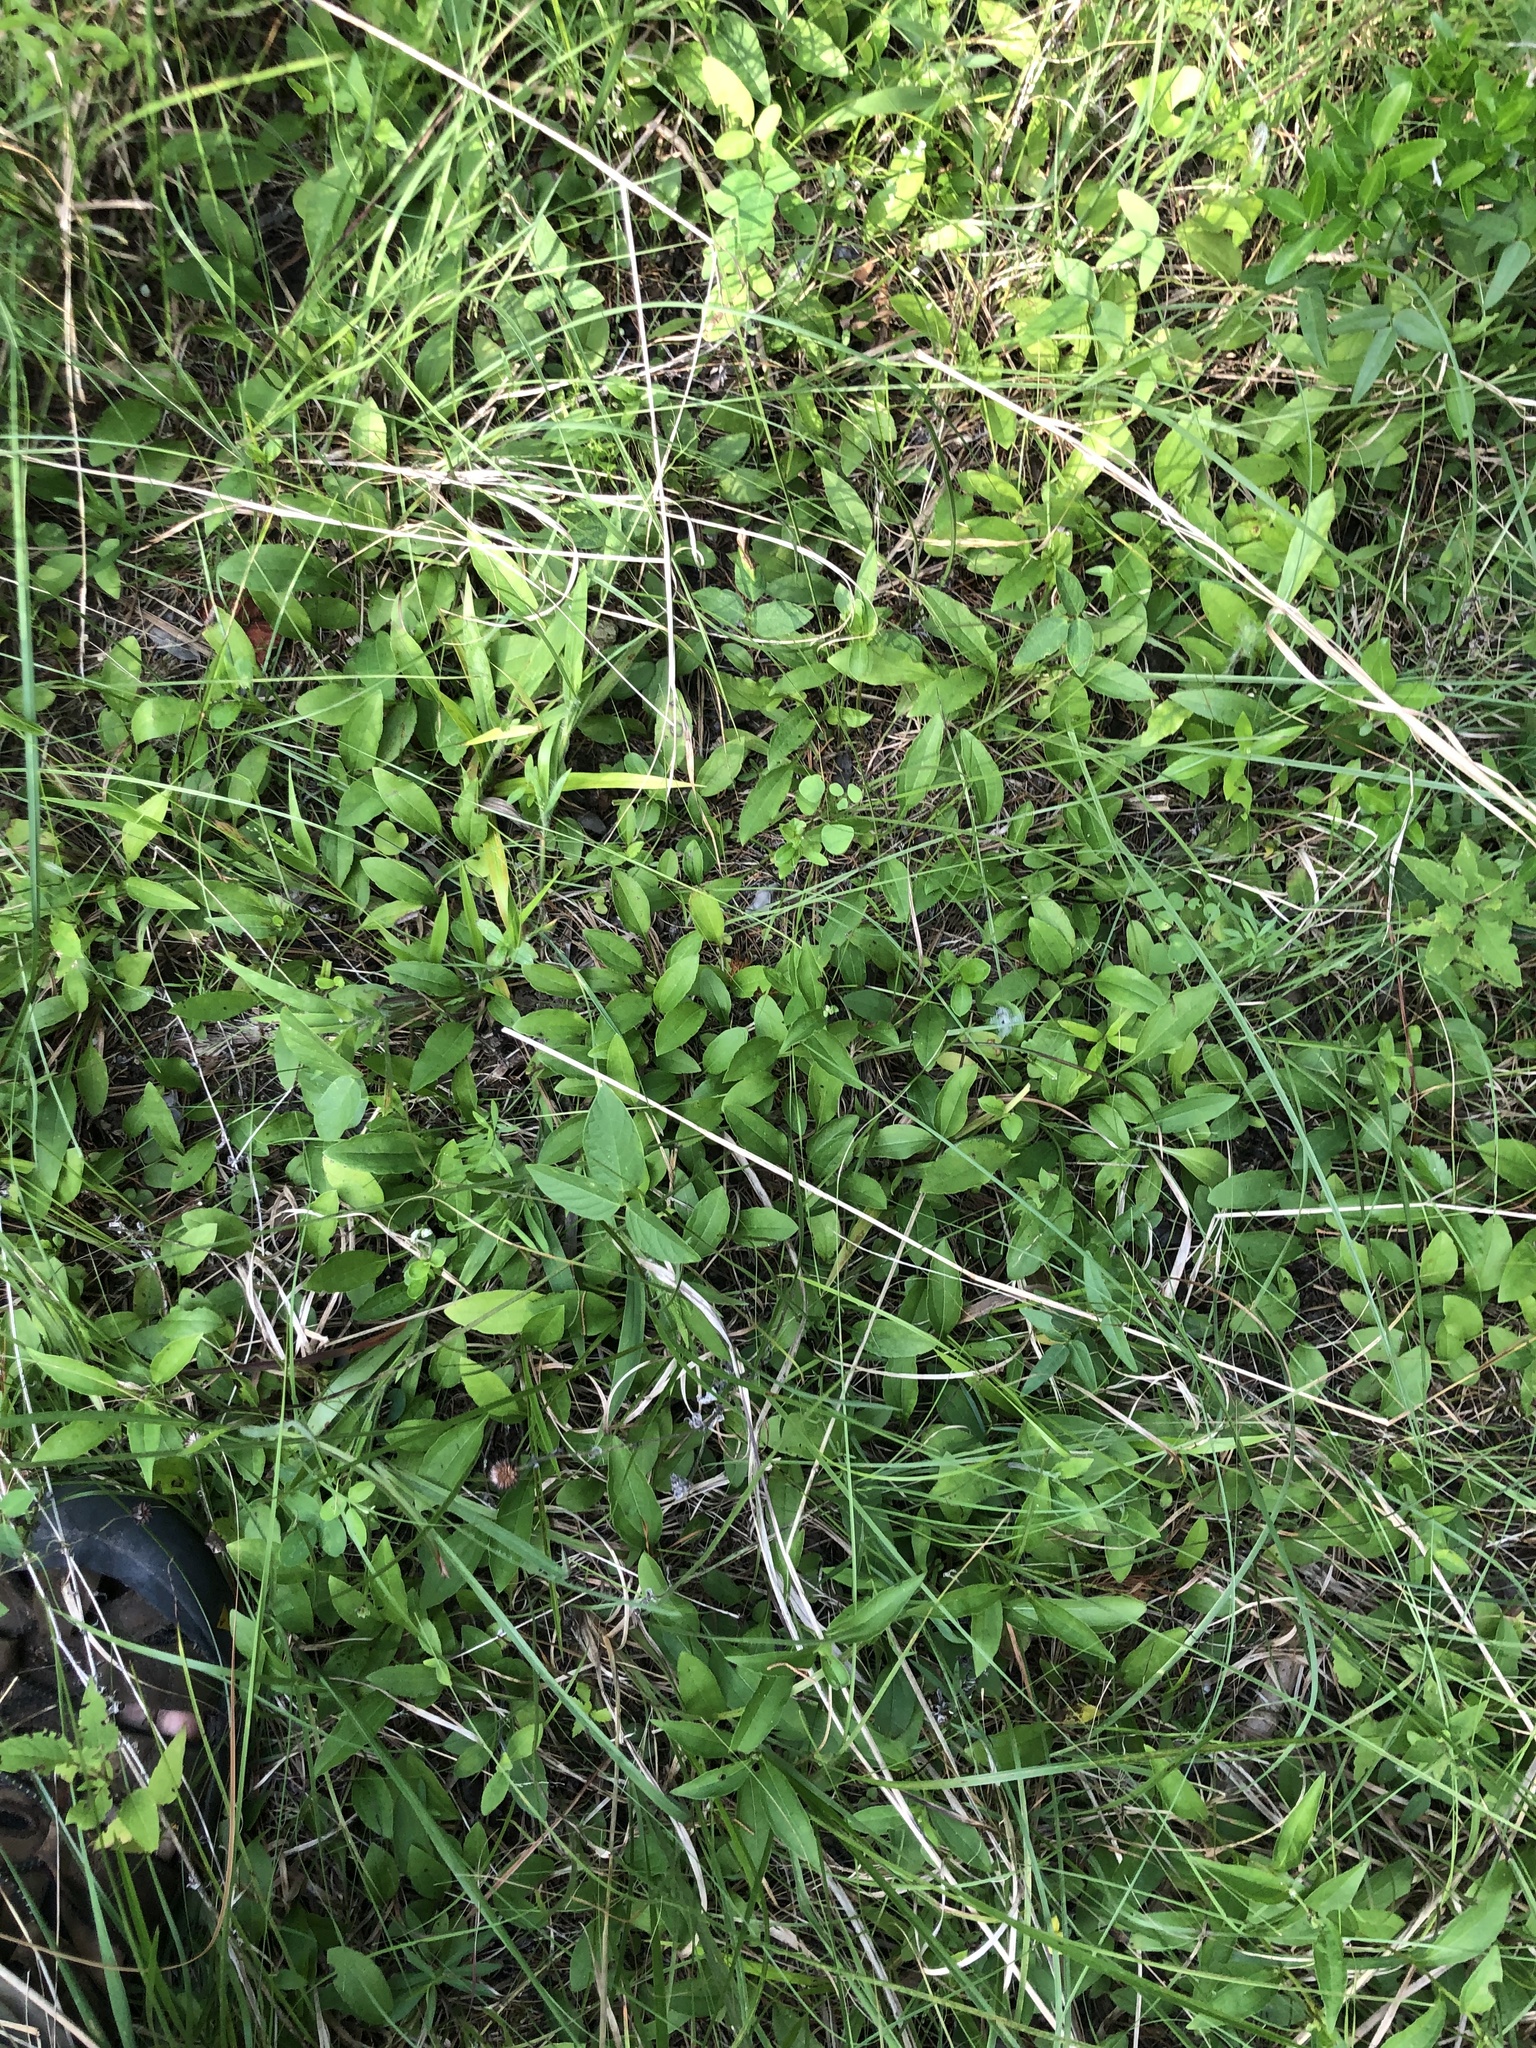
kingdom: Plantae
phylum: Tracheophyta
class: Magnoliopsida
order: Asterales
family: Asteraceae
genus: Rudbeckia
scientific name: Rudbeckia terranigrae
